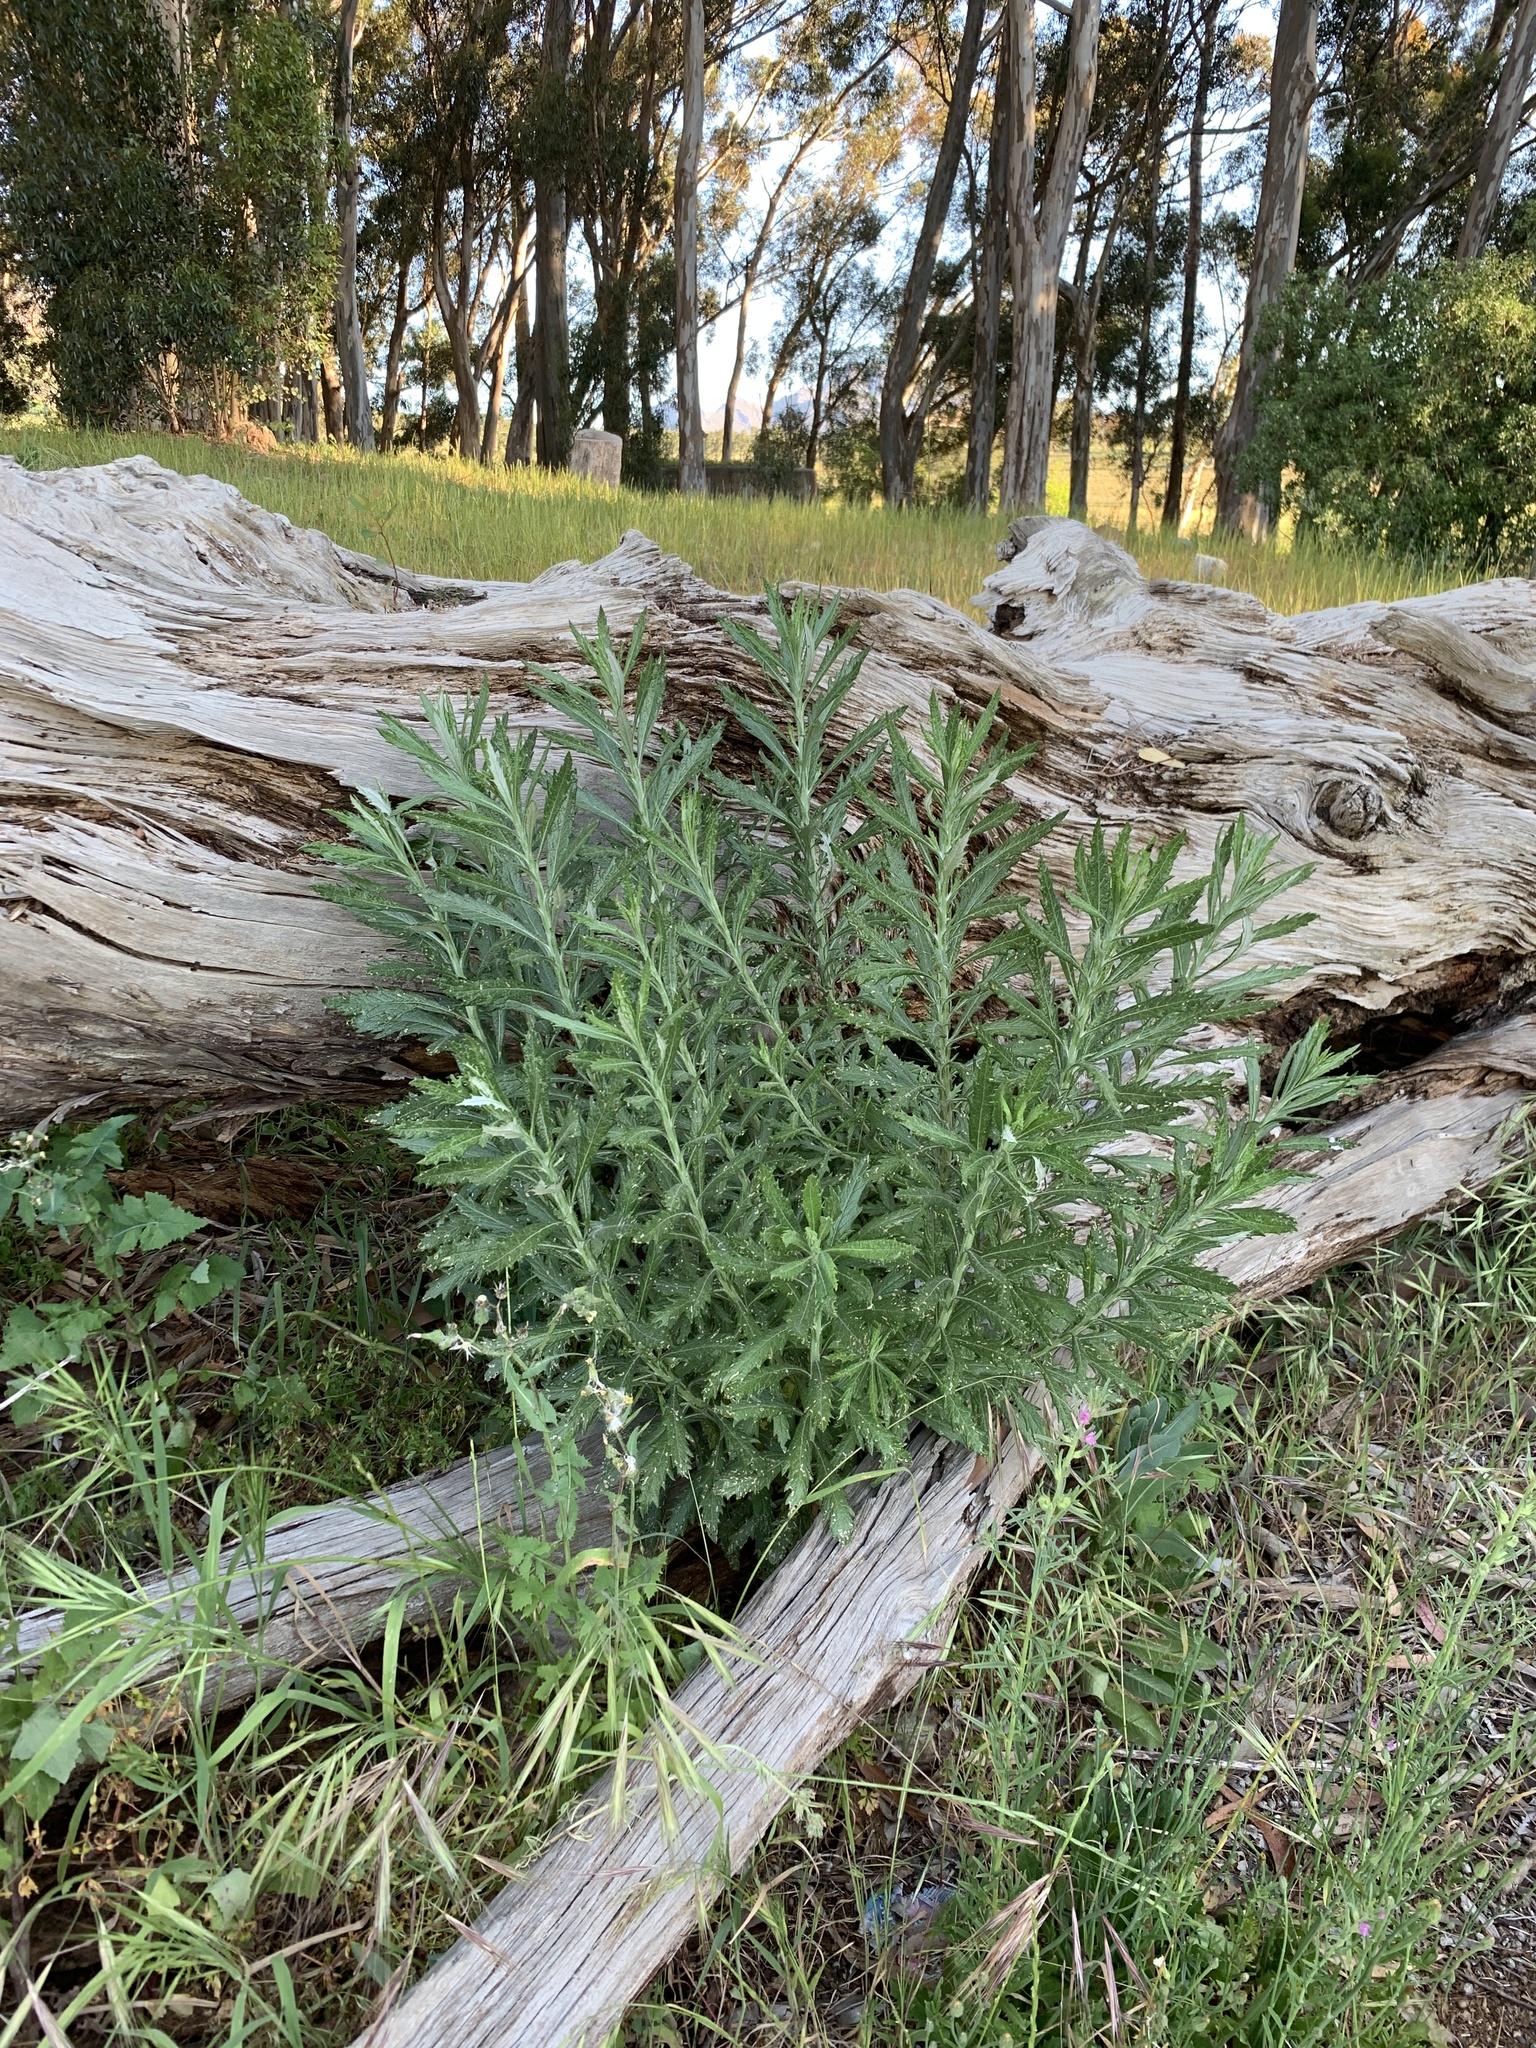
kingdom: Plantae
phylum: Tracheophyta
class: Magnoliopsida
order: Asterales
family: Asteraceae
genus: Senecio
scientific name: Senecio pterophorus
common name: Shoddy ragwort
